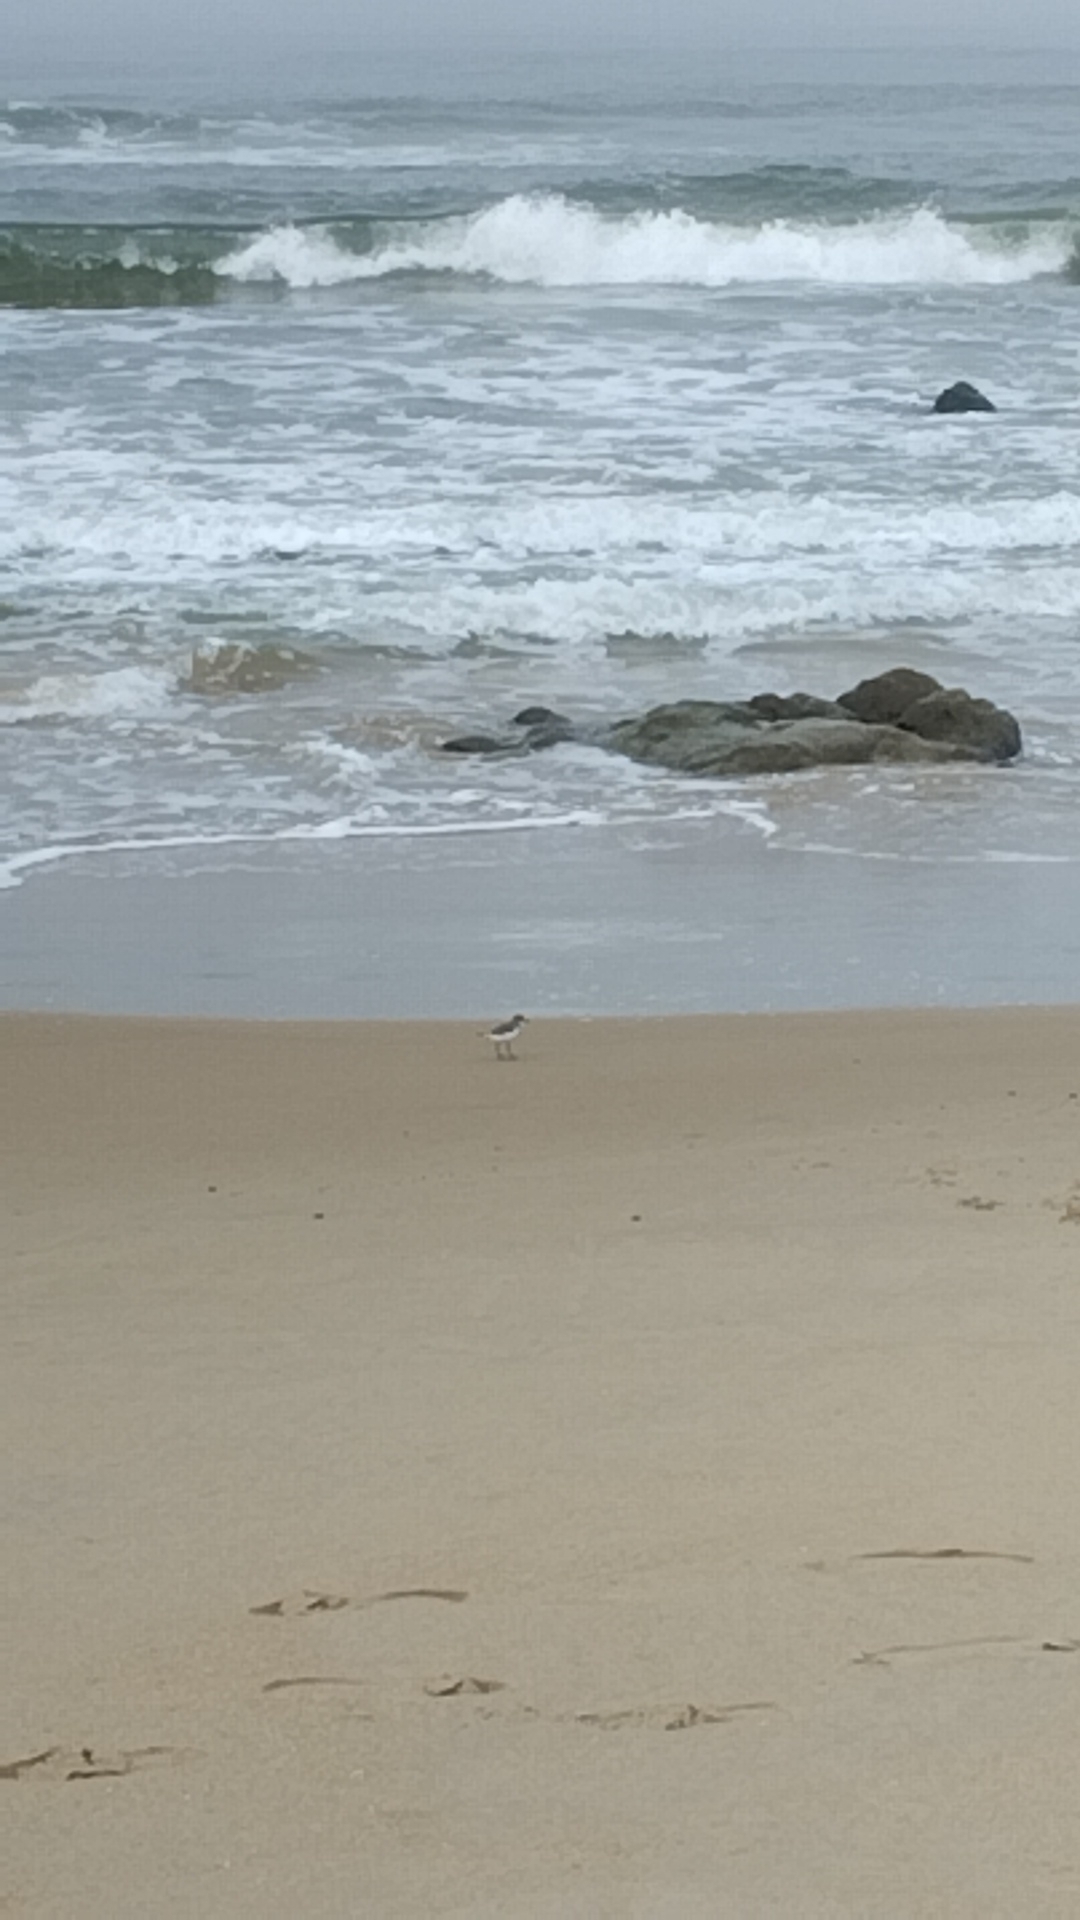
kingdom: Animalia
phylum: Chordata
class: Aves
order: Charadriiformes
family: Charadriidae
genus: Anarhynchus
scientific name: Anarhynchus
